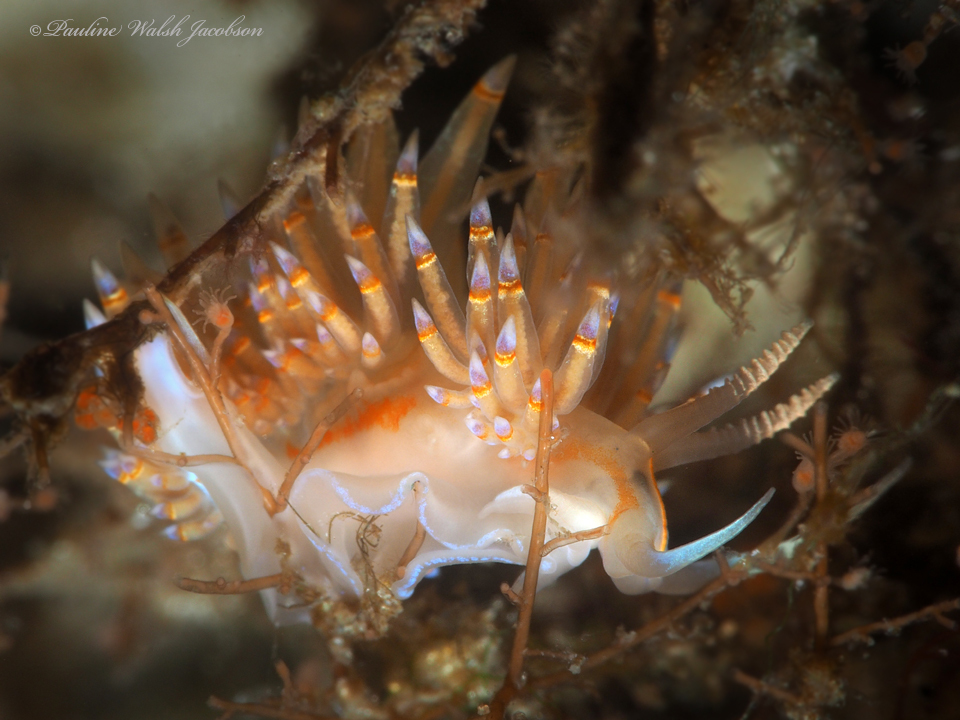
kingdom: Animalia
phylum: Mollusca
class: Gastropoda
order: Nudibranchia
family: Myrrhinidae
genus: Dondice
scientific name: Dondice jupiteriensis
